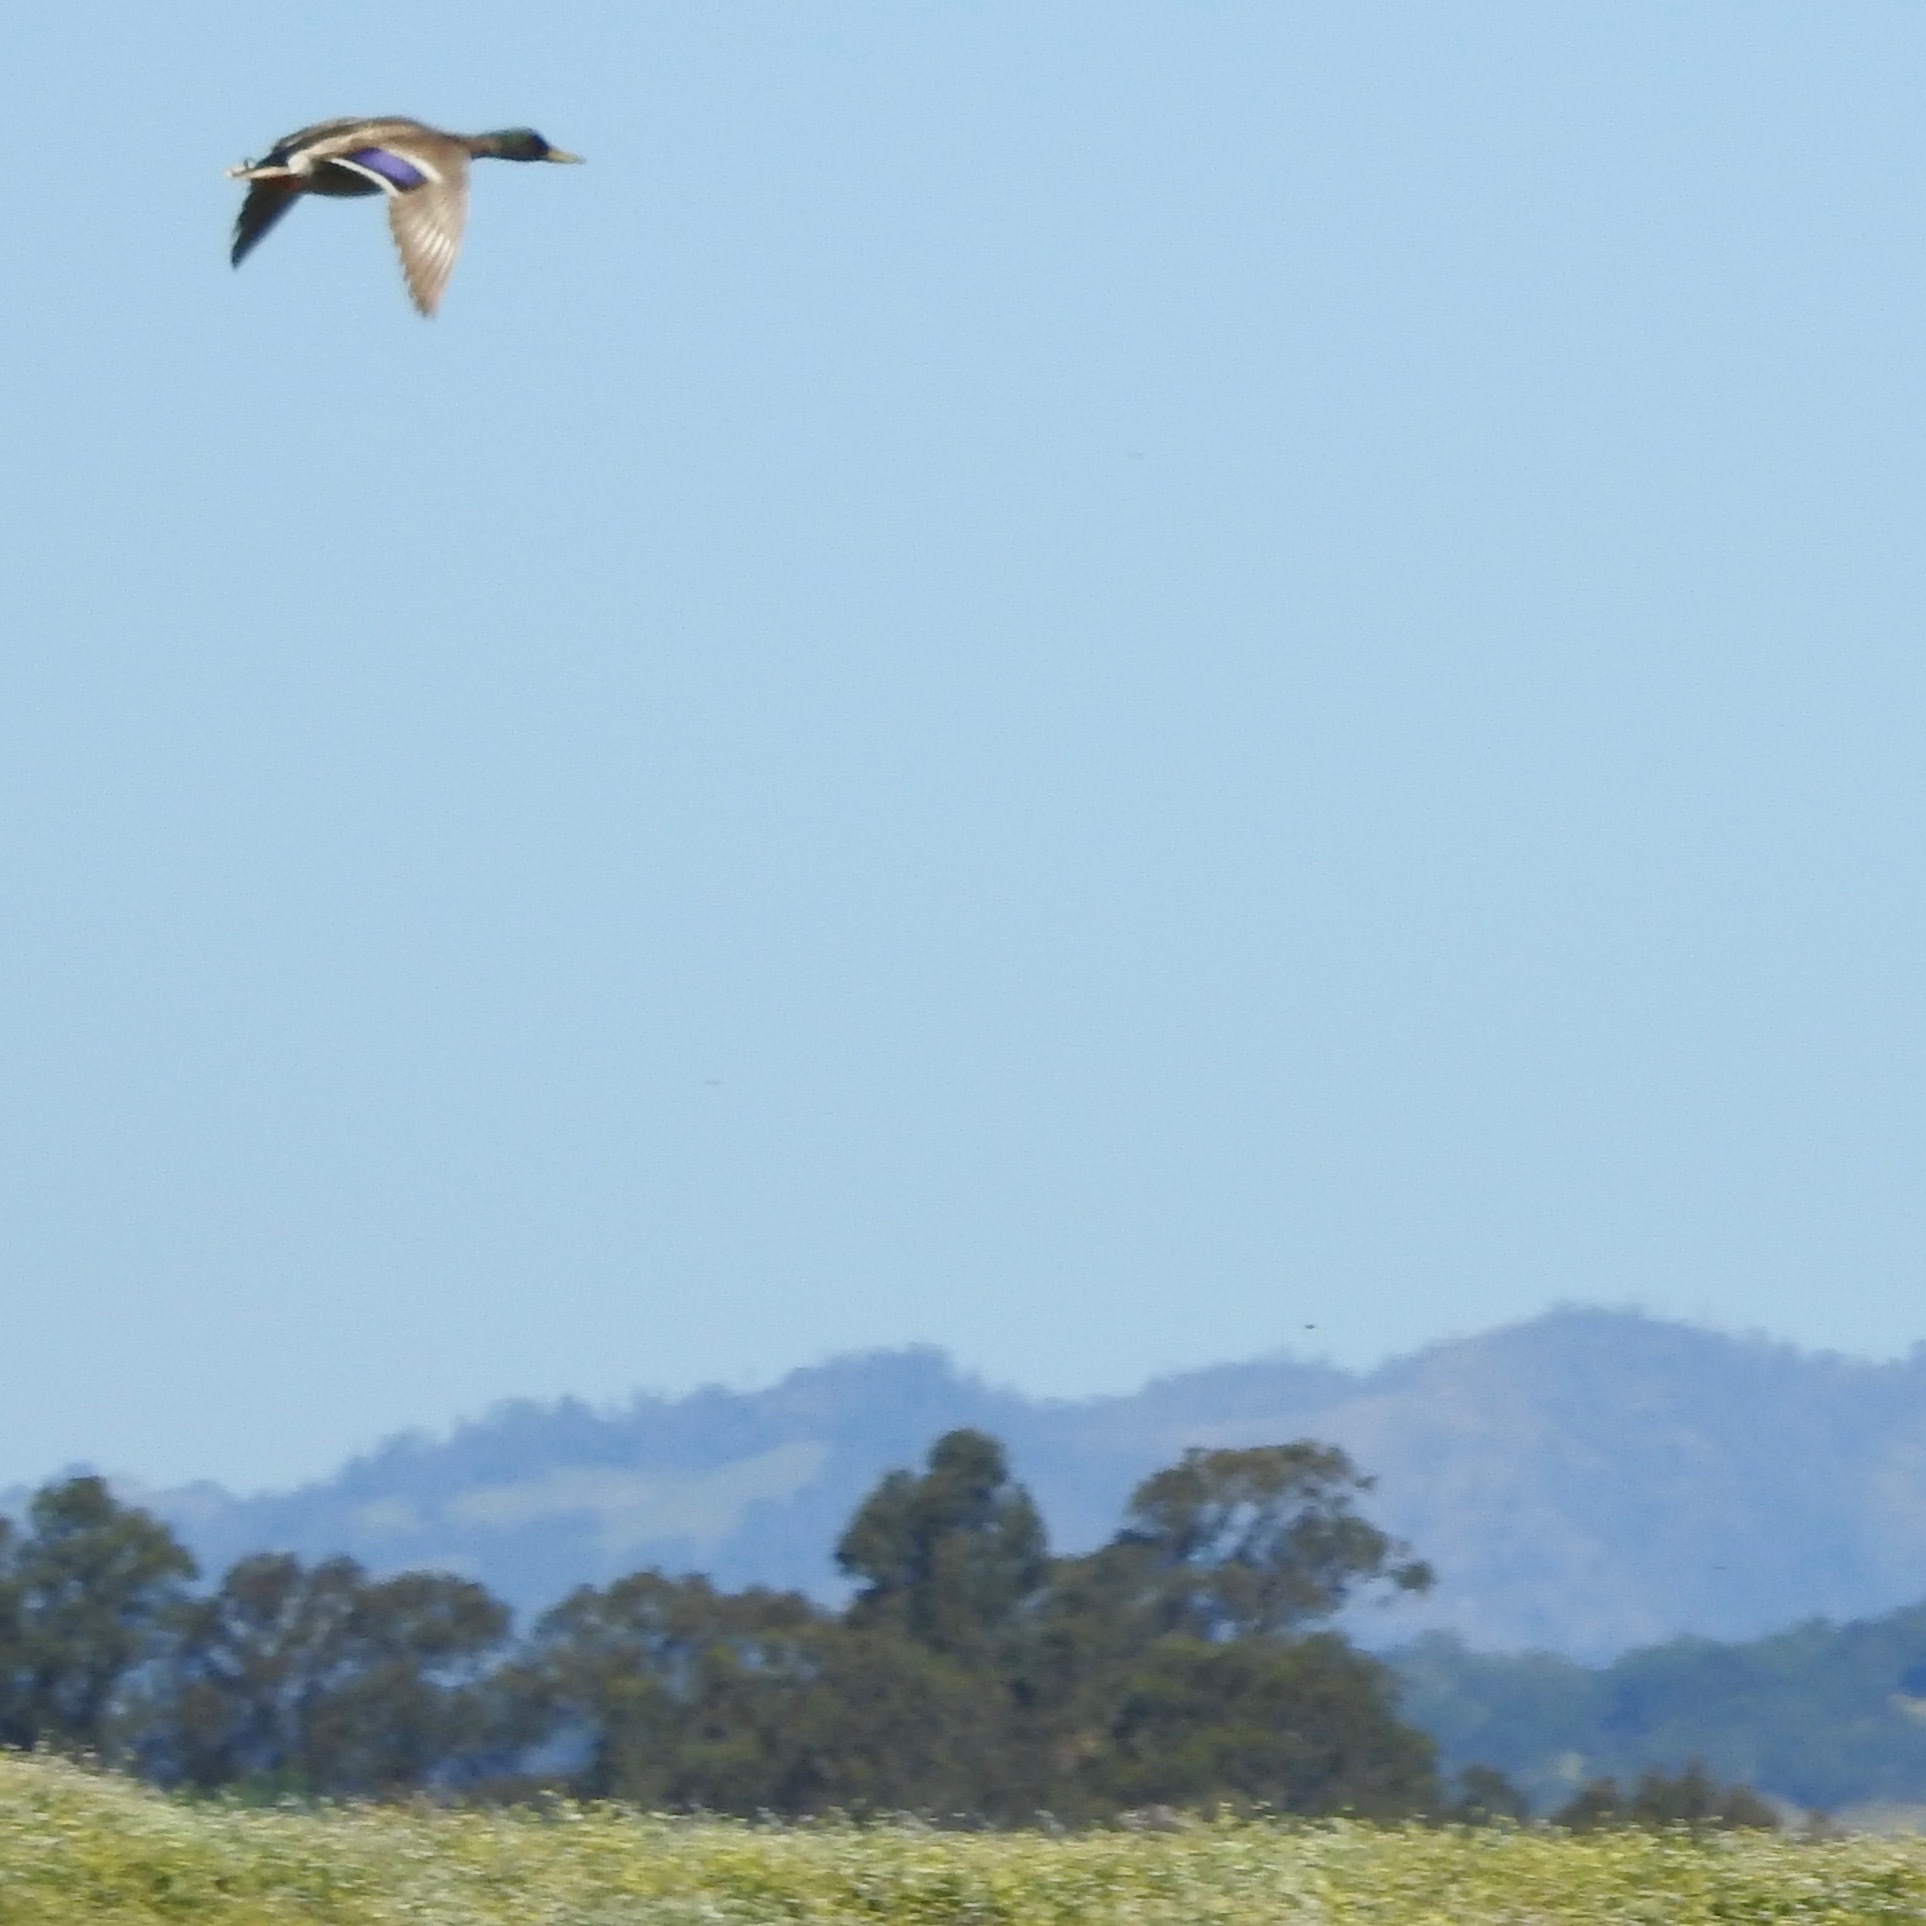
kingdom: Animalia
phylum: Chordata
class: Aves
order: Anseriformes
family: Anatidae
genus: Anas
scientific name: Anas platyrhynchos
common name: Mallard
